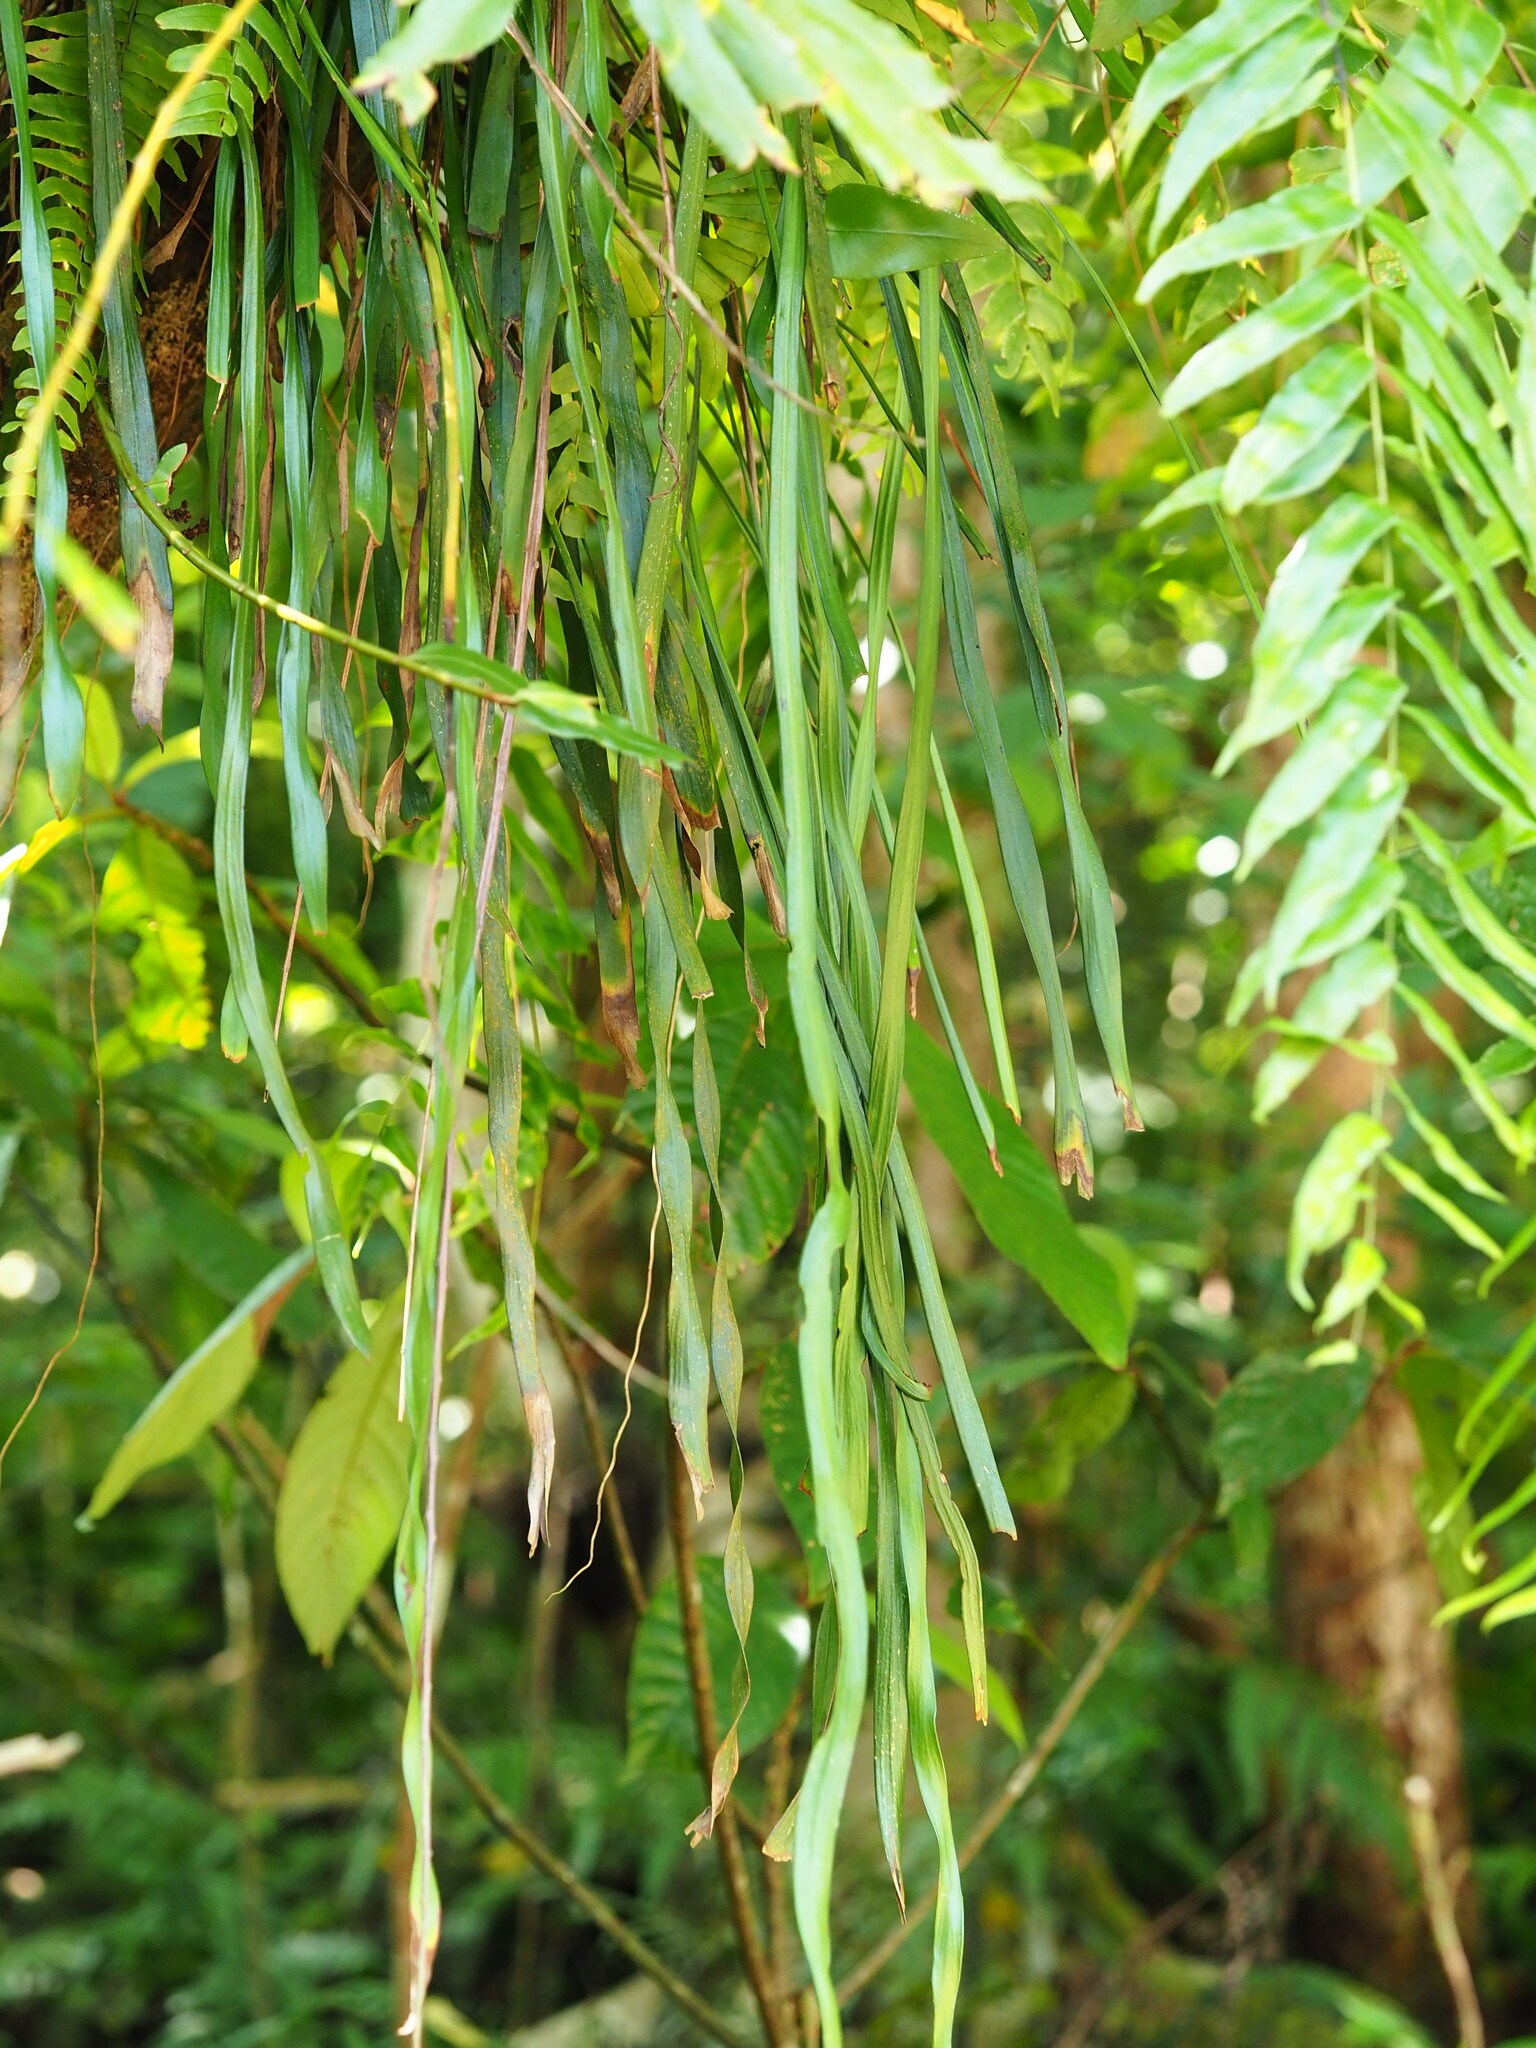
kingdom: Plantae
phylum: Tracheophyta
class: Polypodiopsida
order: Polypodiales
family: Pteridaceae
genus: Haplopteris
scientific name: Haplopteris elongata
